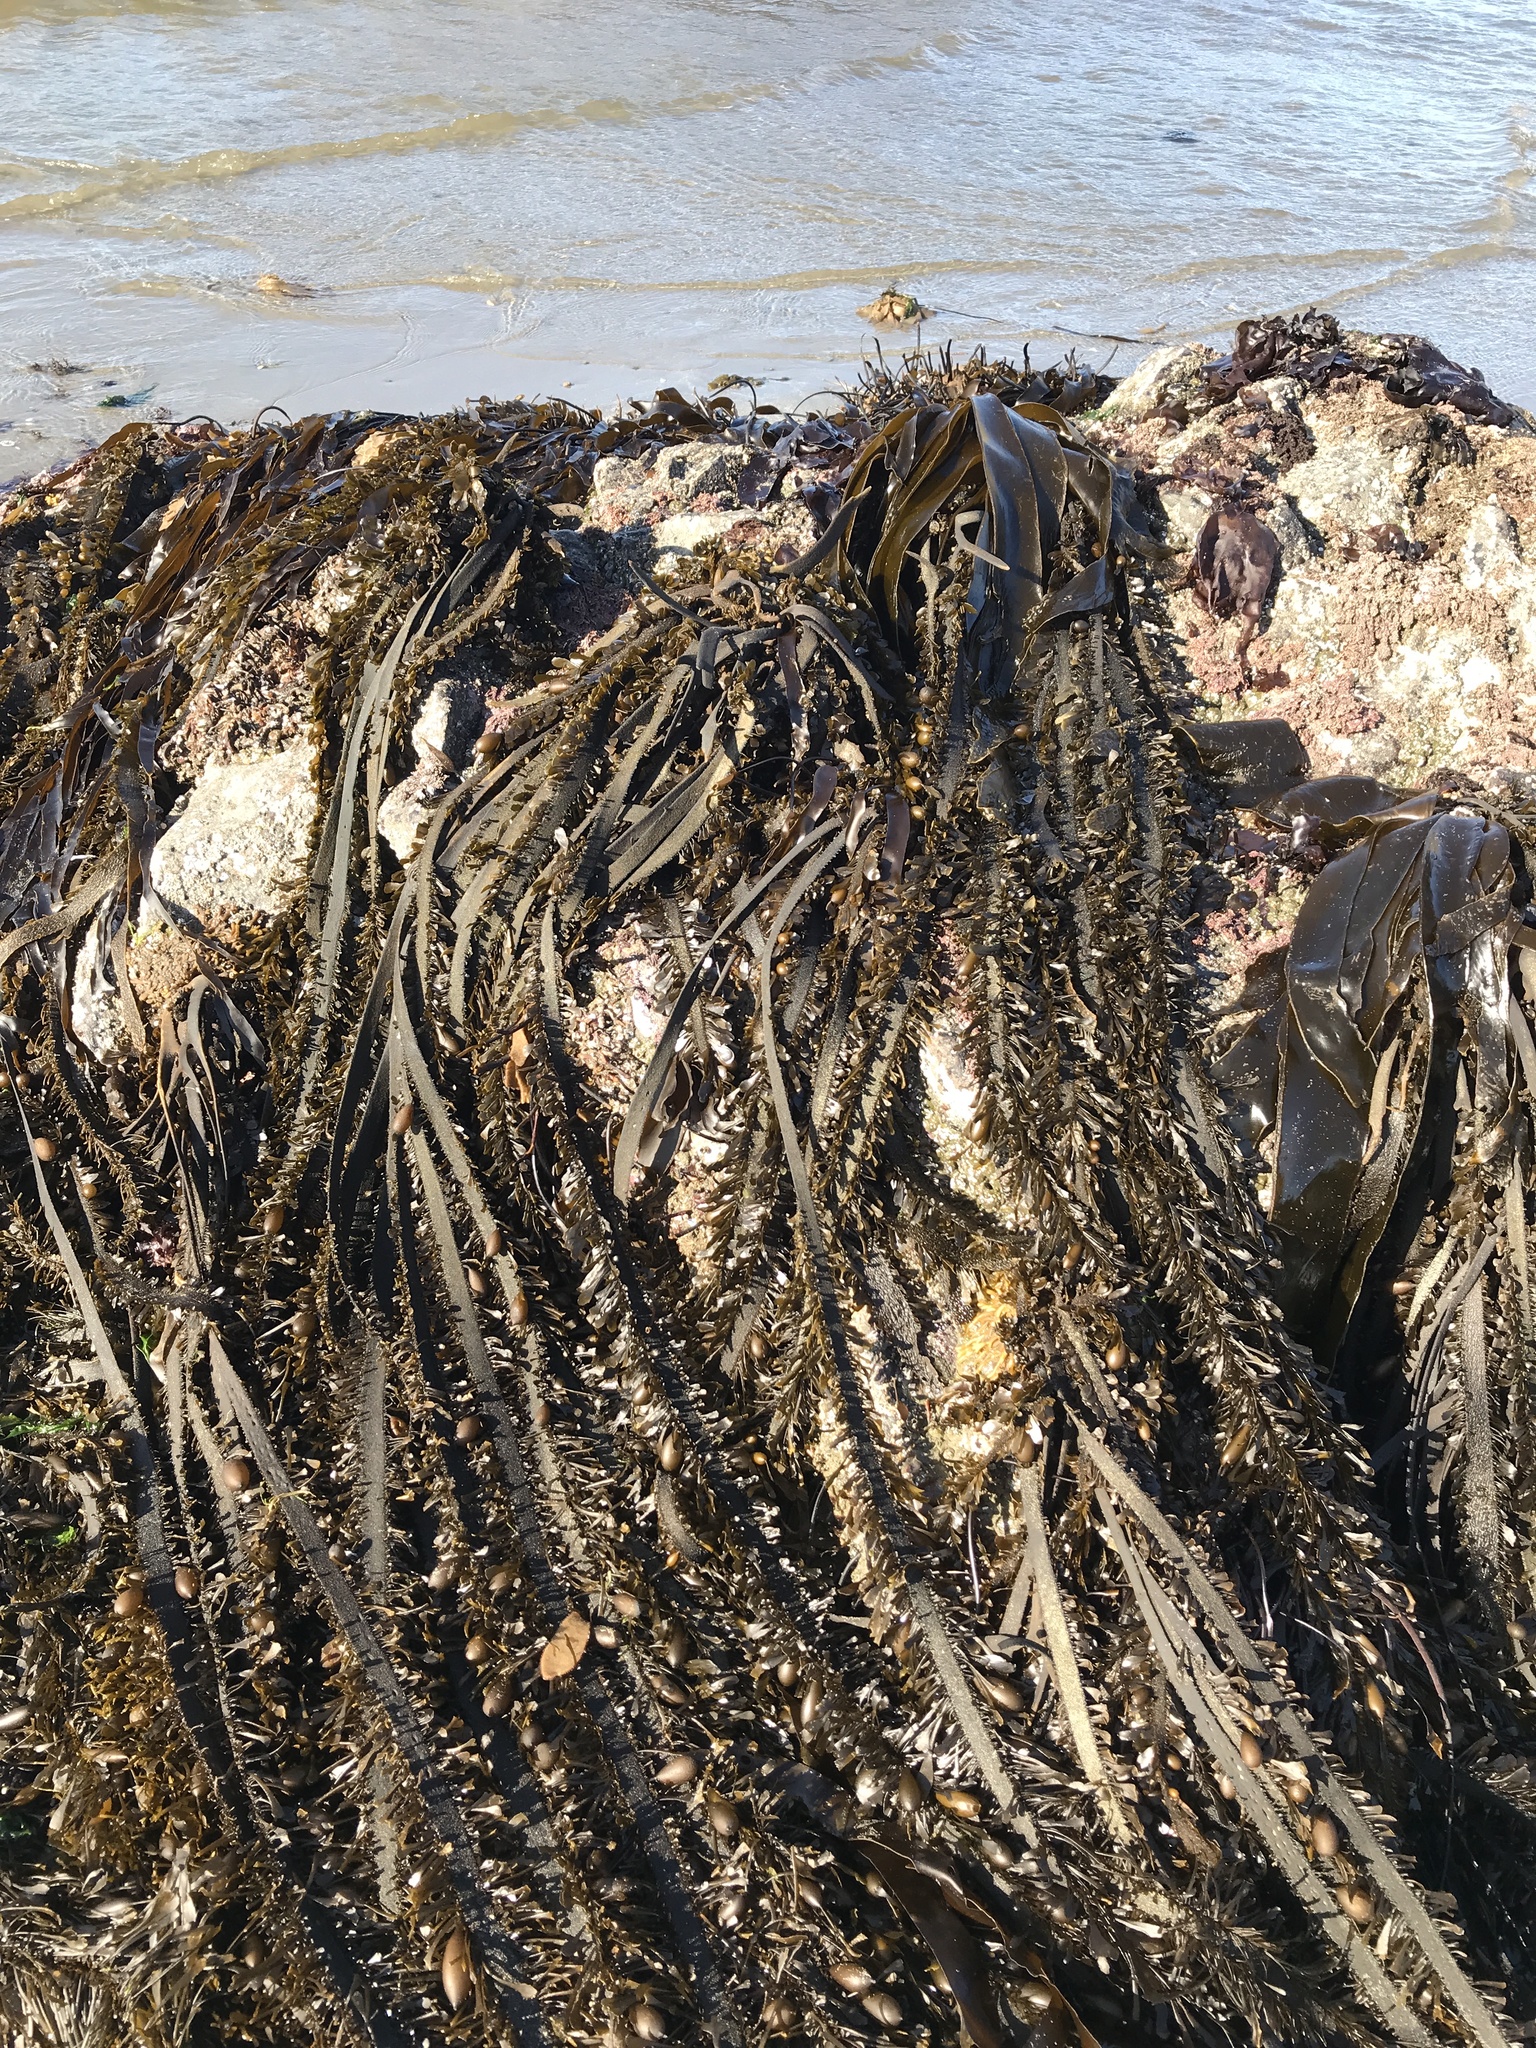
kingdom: Chromista
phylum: Ochrophyta
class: Phaeophyceae
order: Laminariales
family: Lessoniaceae
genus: Egregia
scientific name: Egregia menziesii
